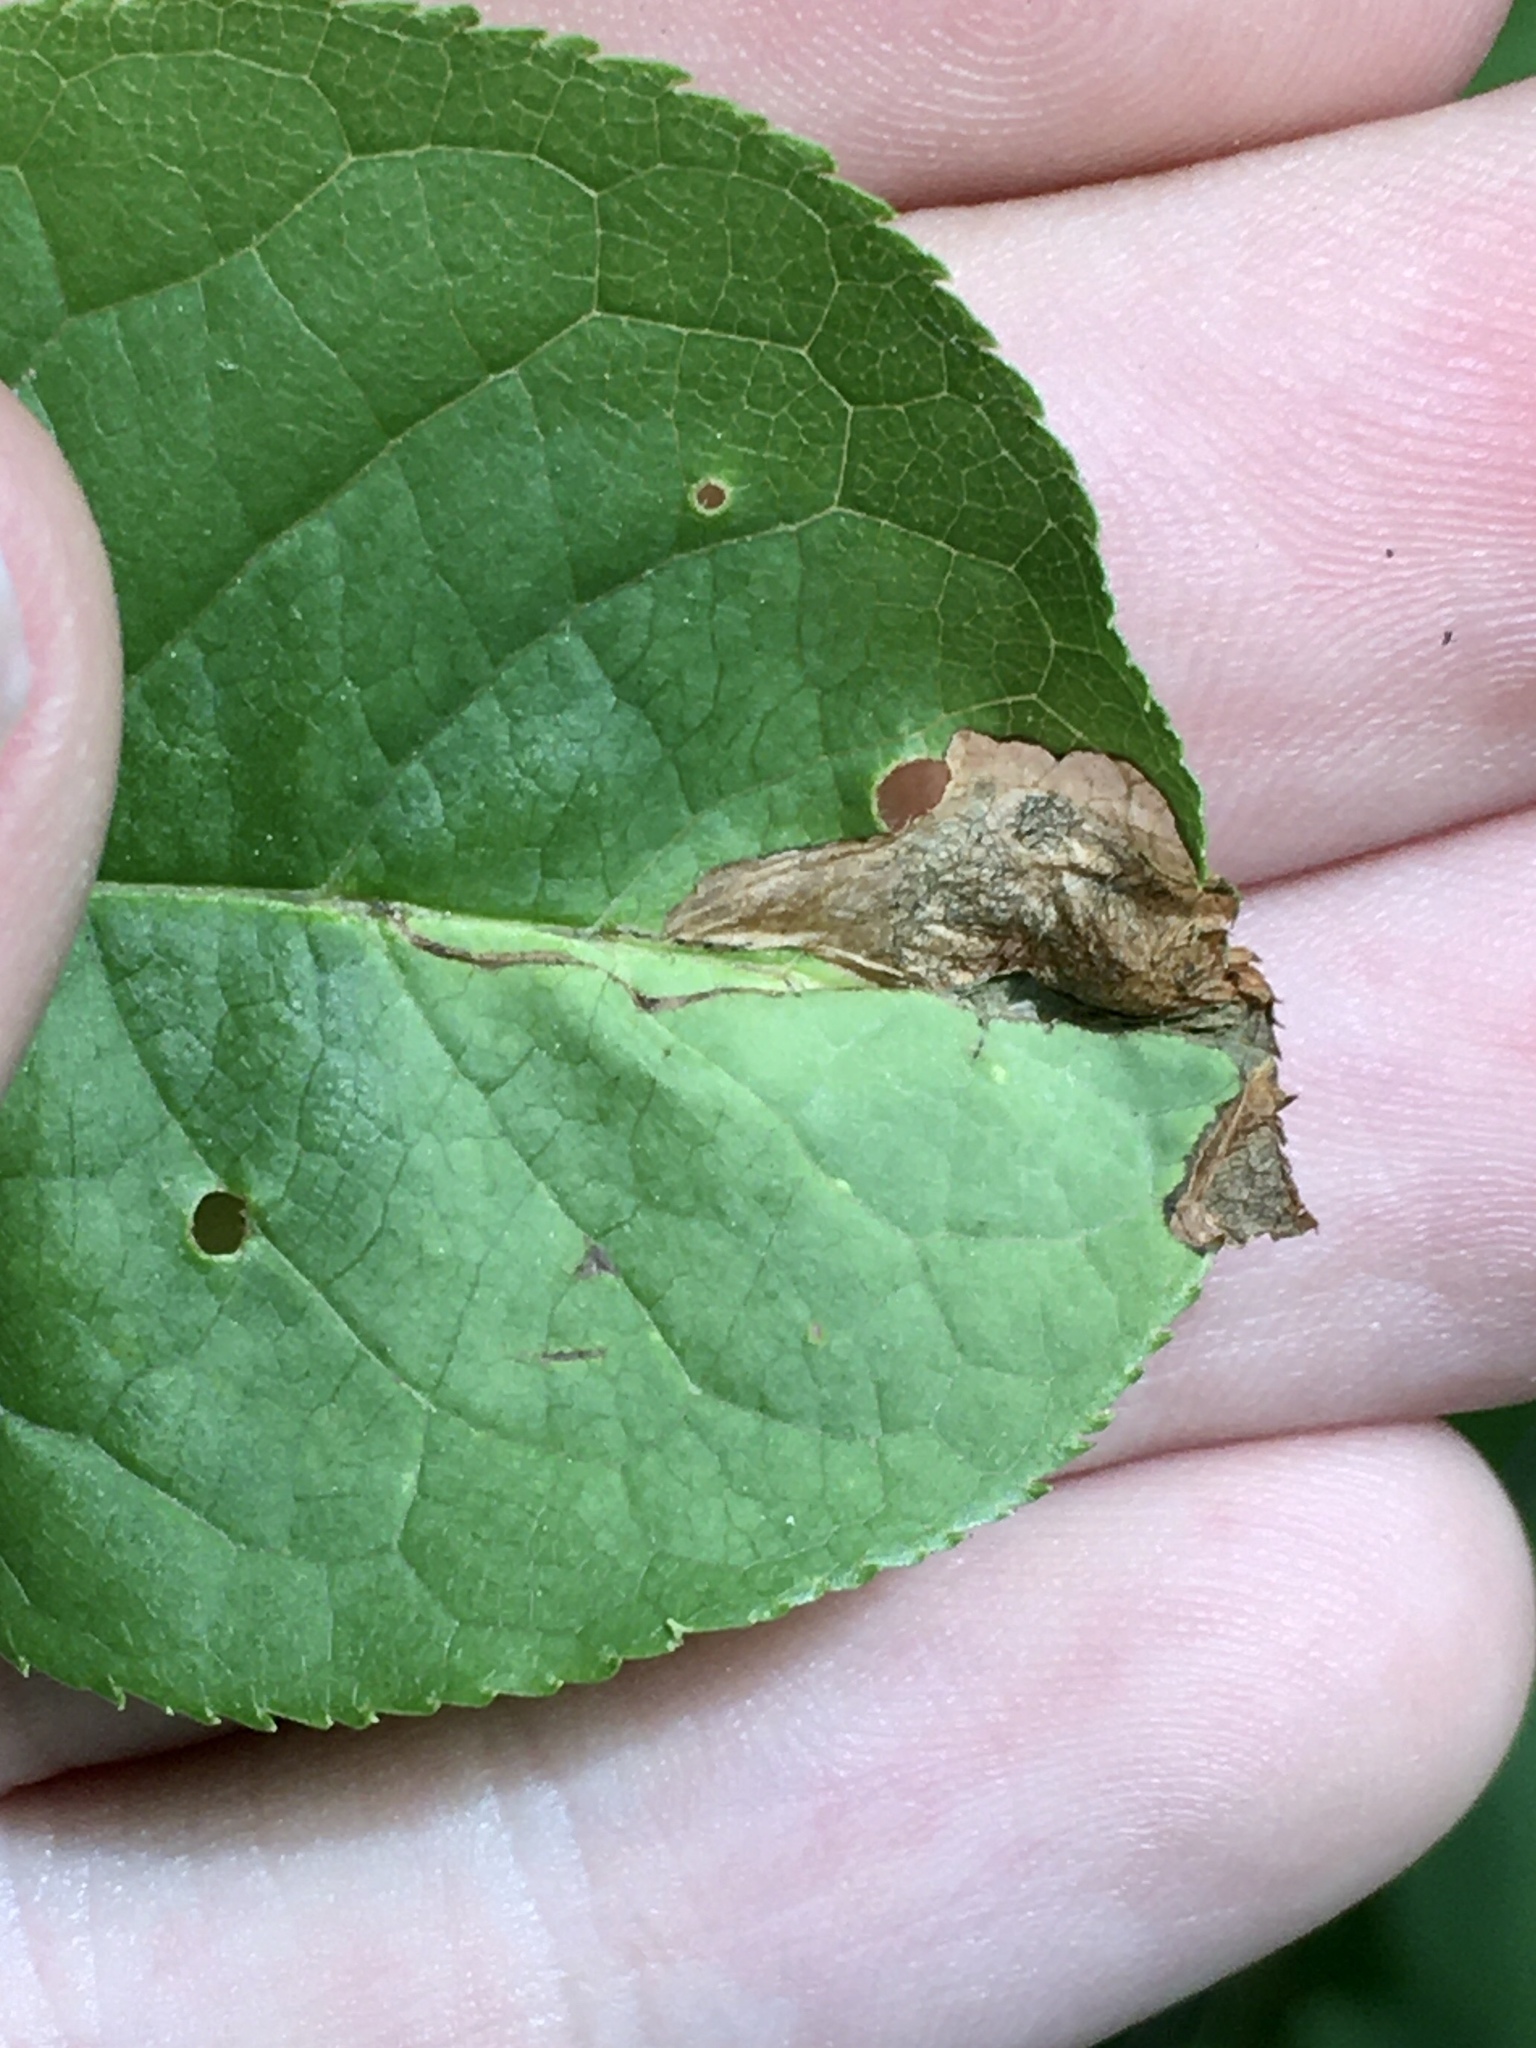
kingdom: Animalia
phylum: Arthropoda
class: Insecta
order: Coleoptera
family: Curculionidae
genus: Orchestes
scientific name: Orchestes pallicornis
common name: Apple-flea weevil
